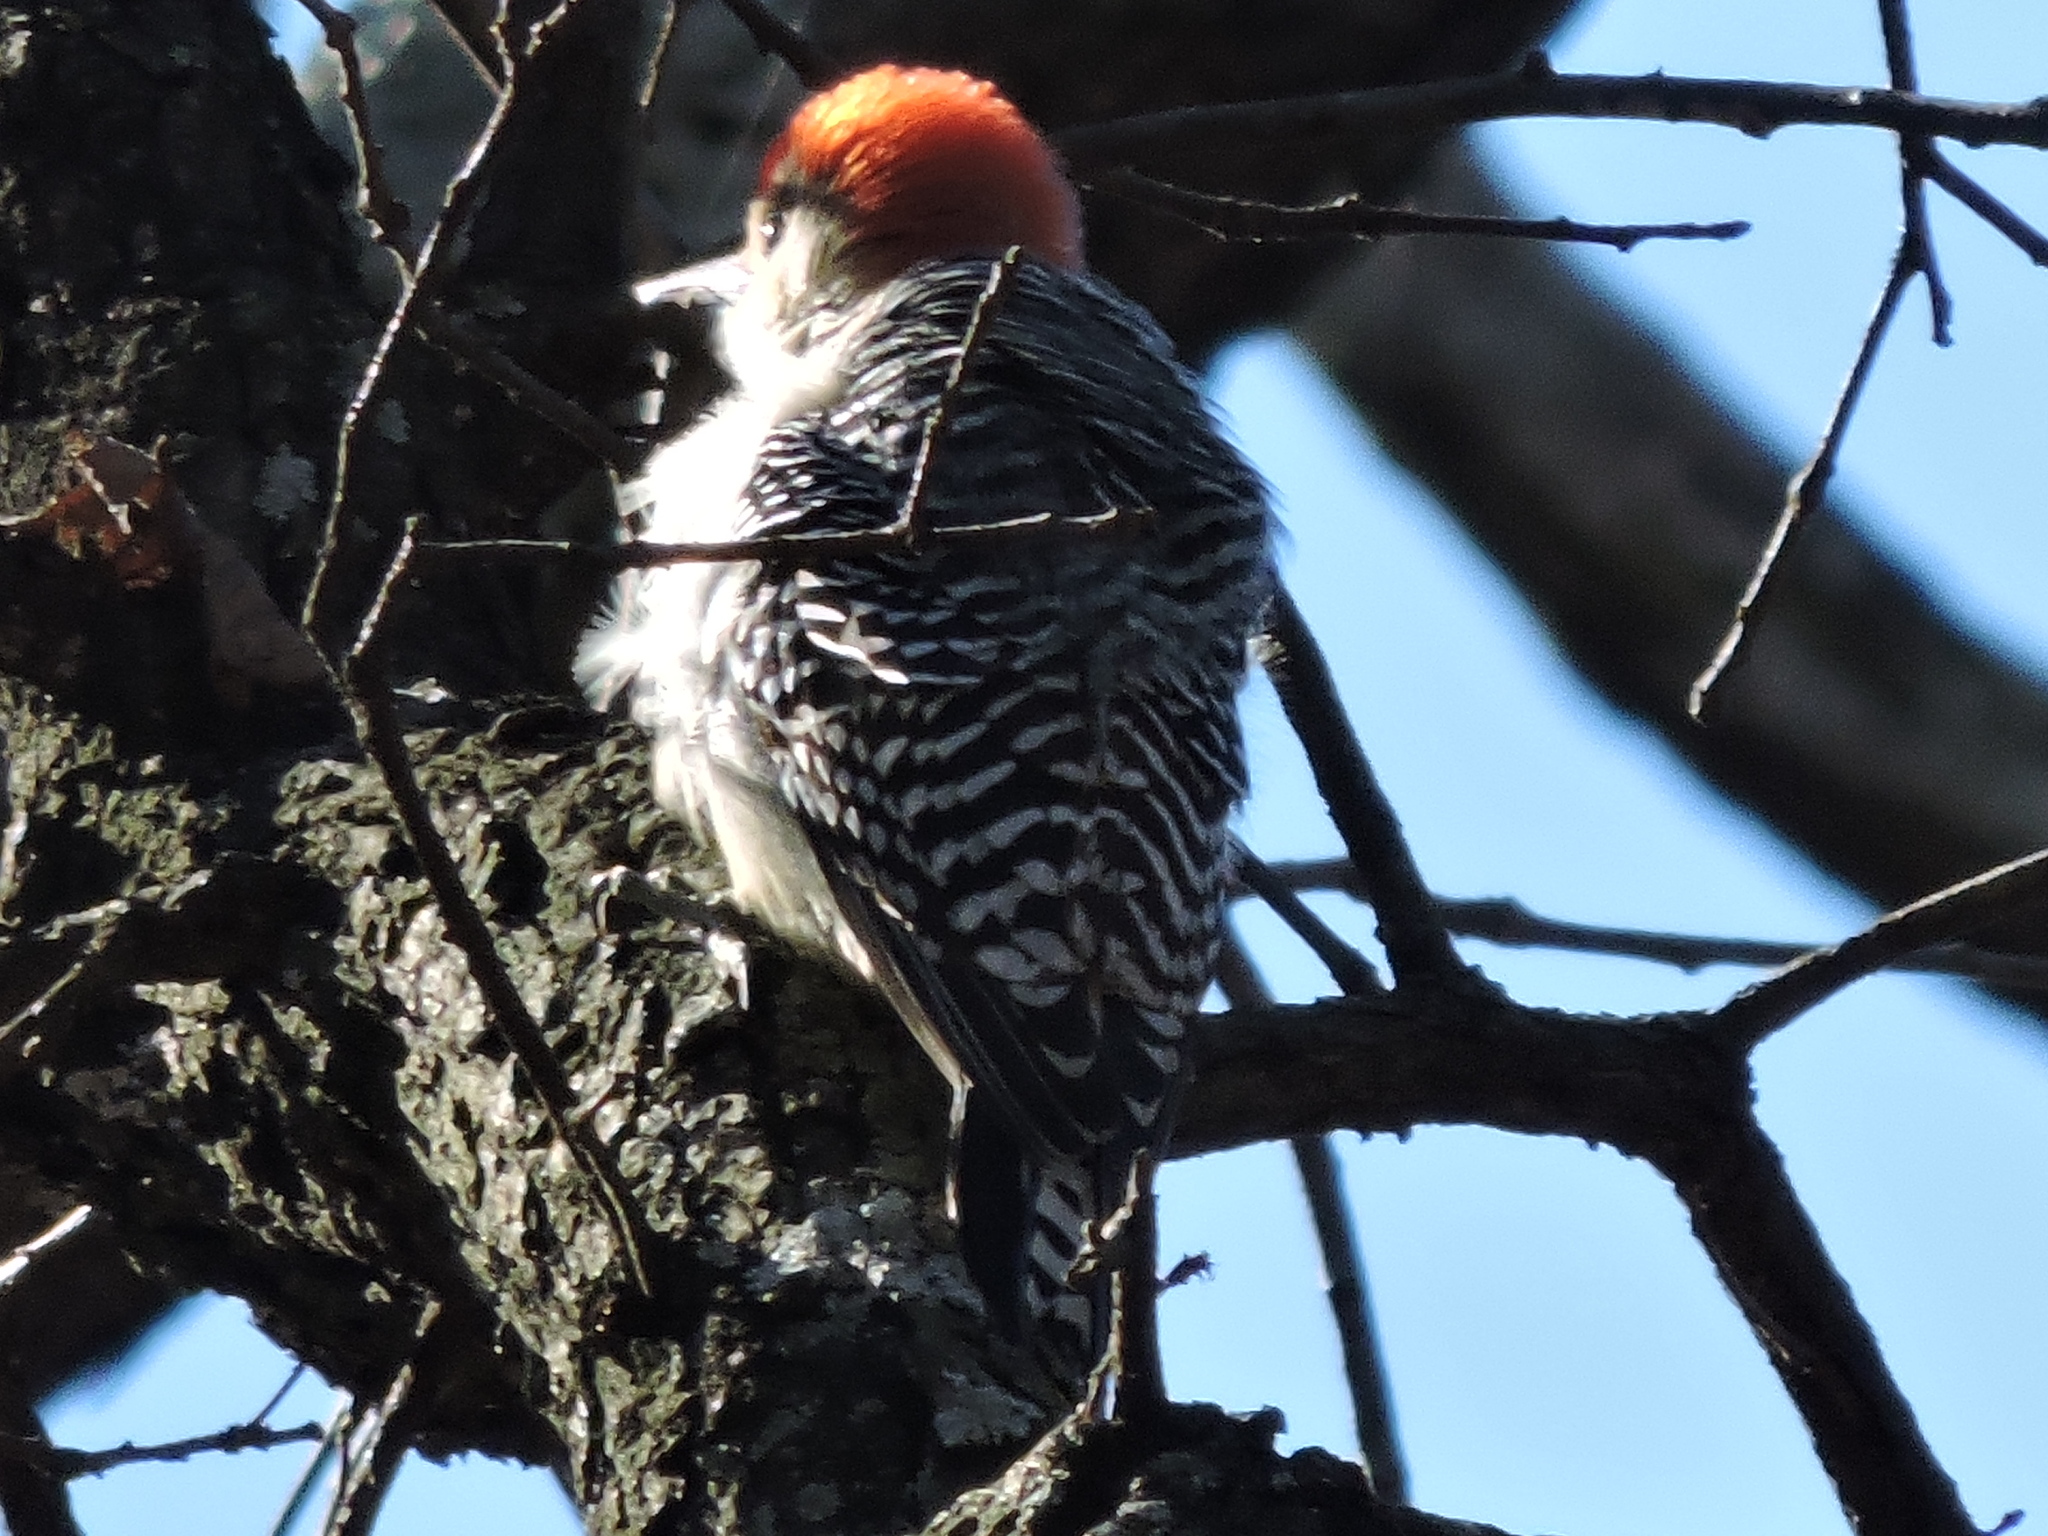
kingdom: Animalia
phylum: Chordata
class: Aves
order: Piciformes
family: Picidae
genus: Melanerpes
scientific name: Melanerpes carolinus
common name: Red-bellied woodpecker
